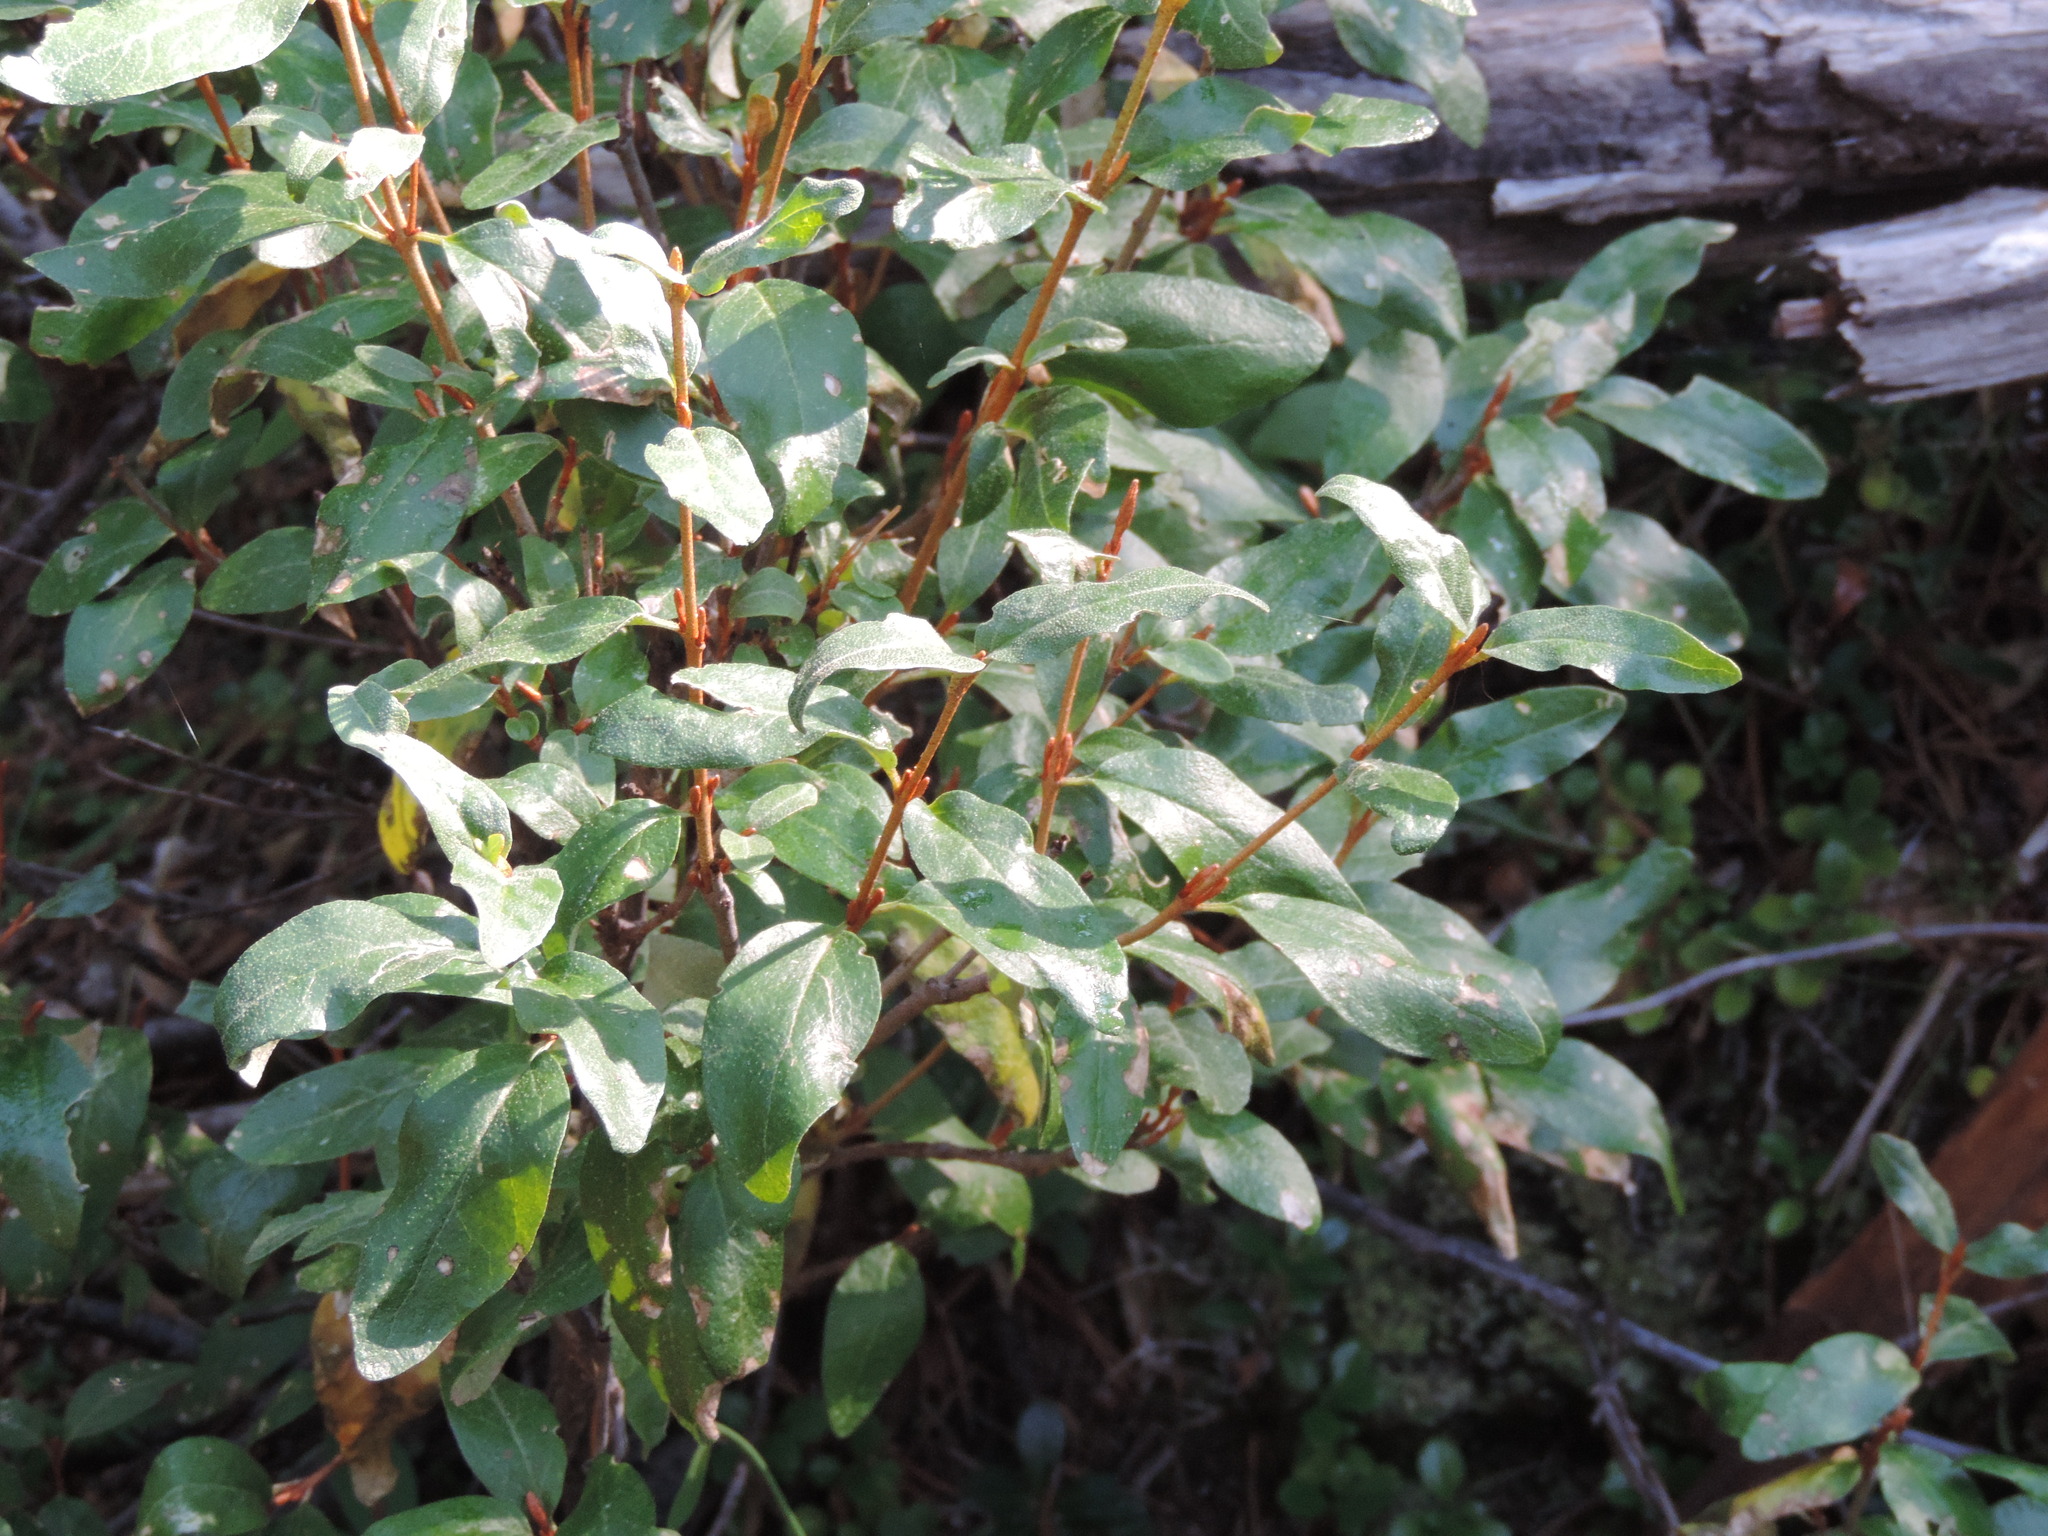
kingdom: Plantae
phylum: Tracheophyta
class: Magnoliopsida
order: Rosales
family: Elaeagnaceae
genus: Shepherdia
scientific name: Shepherdia canadensis
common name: Soapberry
